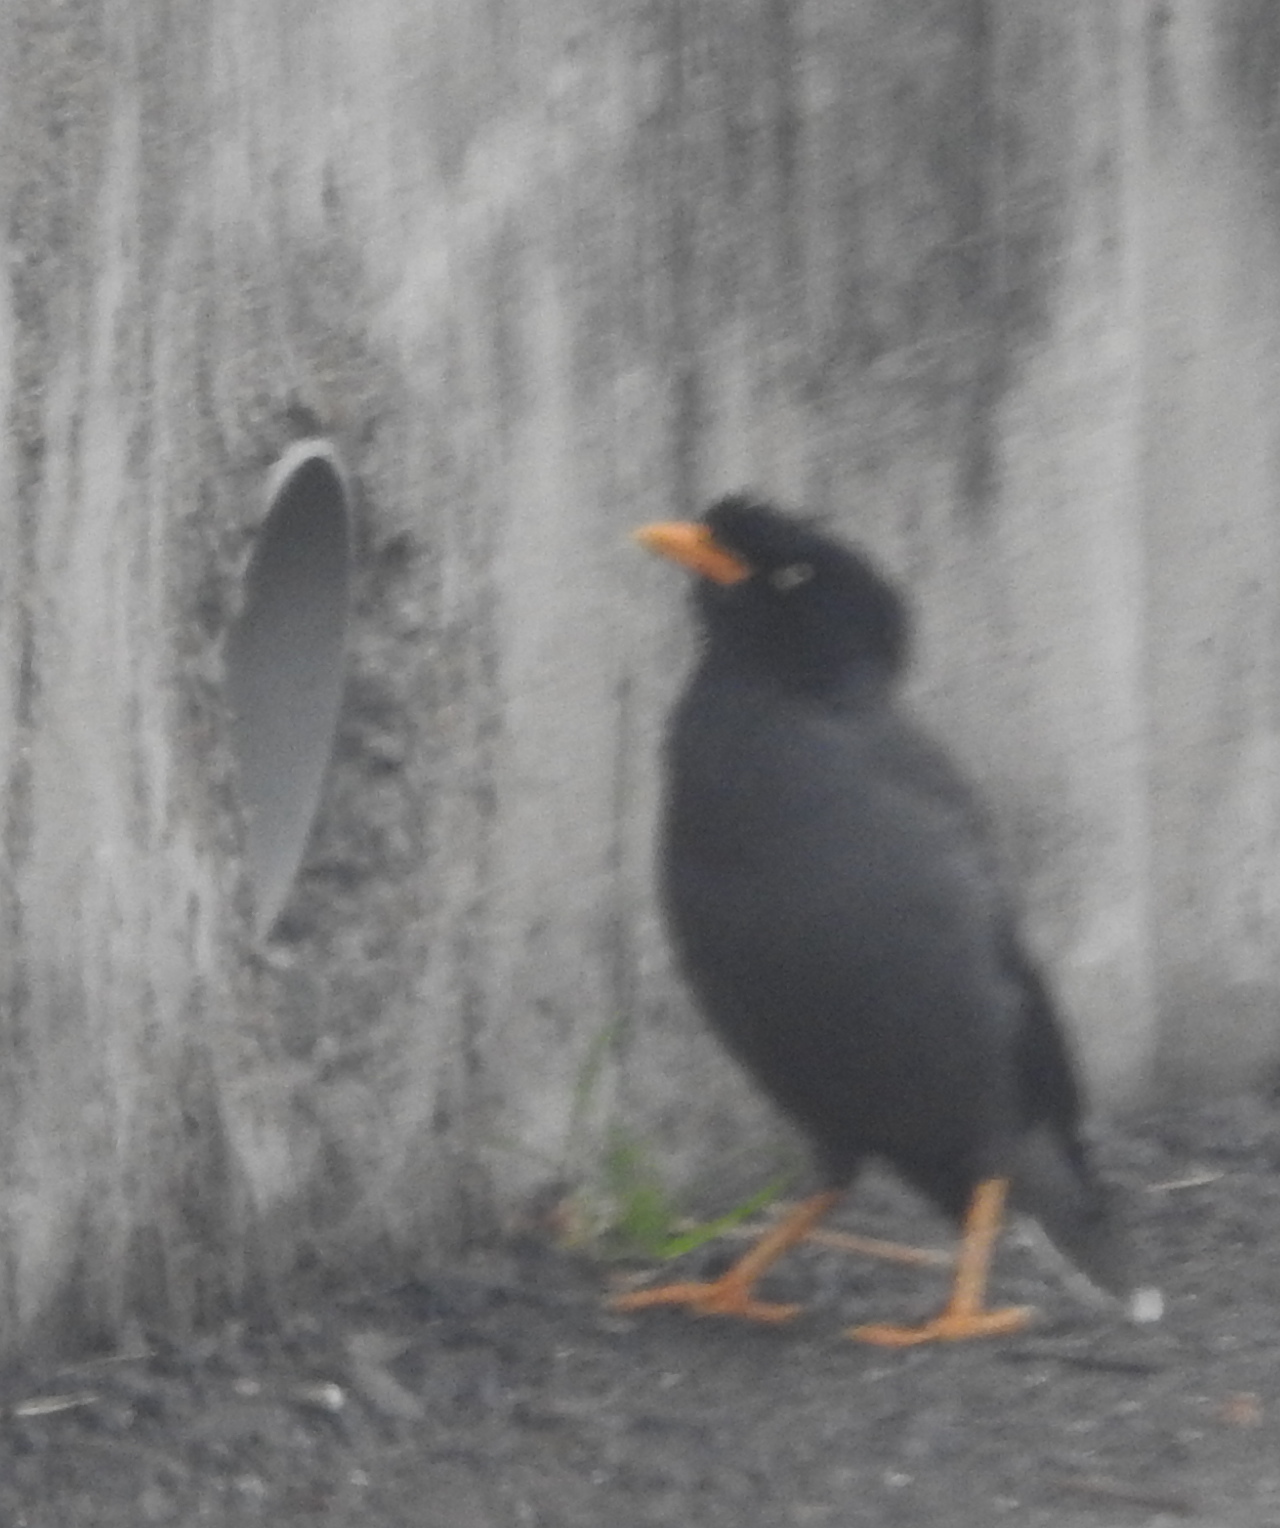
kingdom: Animalia
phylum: Chordata
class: Aves
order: Passeriformes
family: Sturnidae
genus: Acridotheres
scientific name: Acridotheres javanicus
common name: Javan myna
